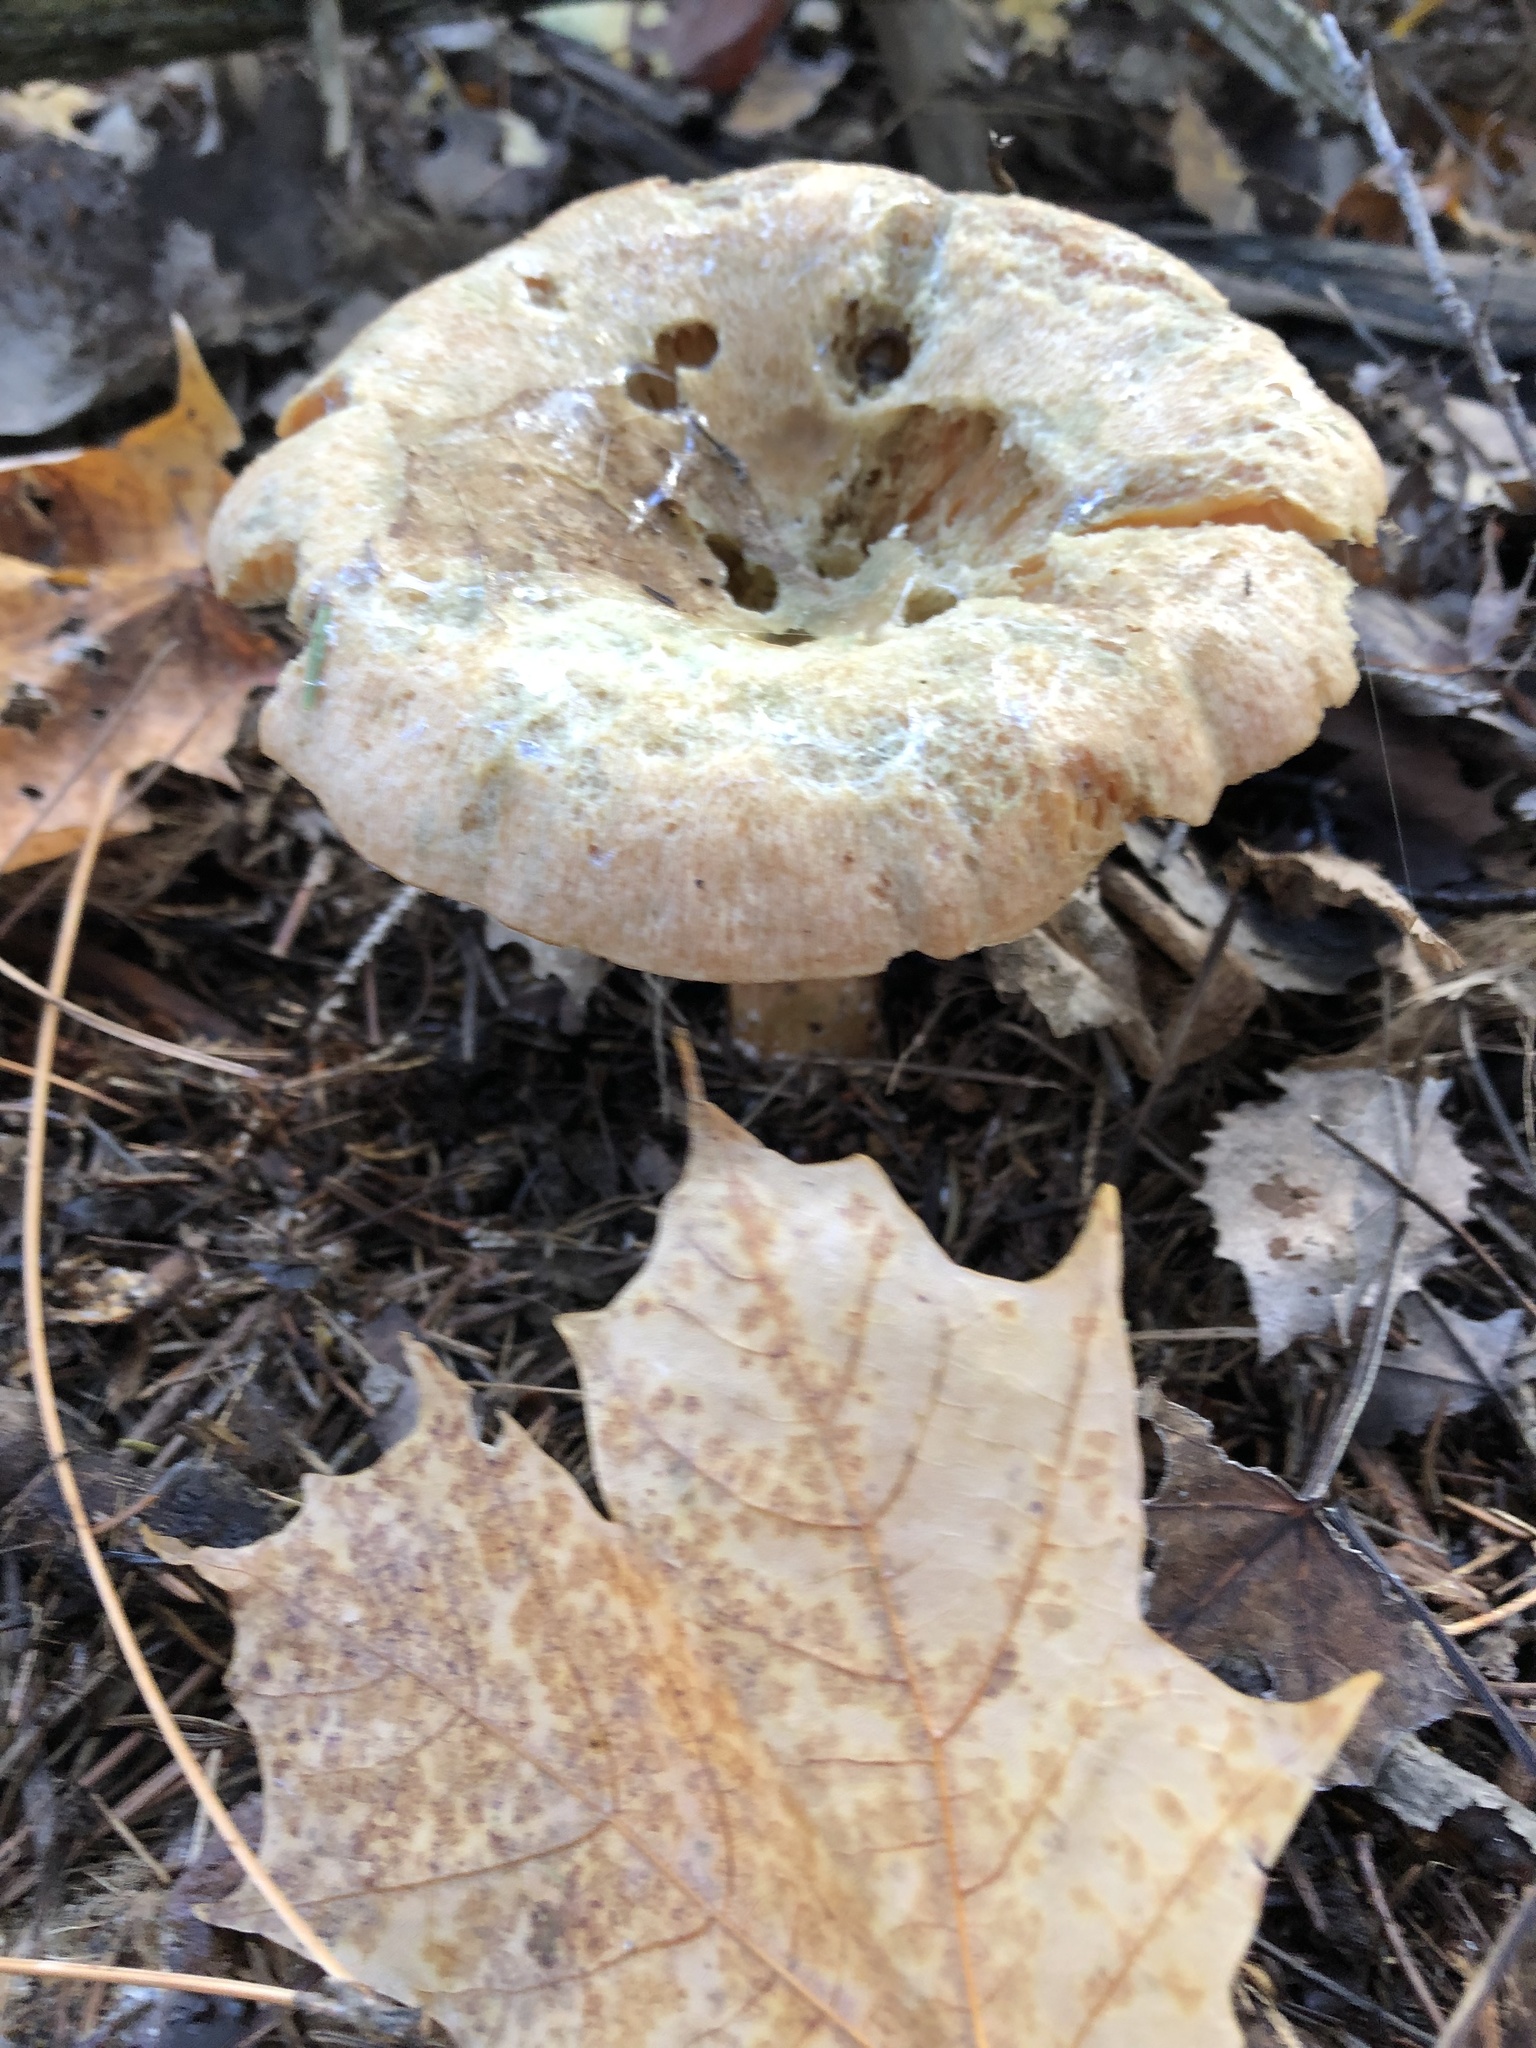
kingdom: Fungi
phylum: Basidiomycota
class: Agaricomycetes
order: Russulales
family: Russulaceae
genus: Lactarius
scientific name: Lactarius deterrimus
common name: False saffron milkcap
